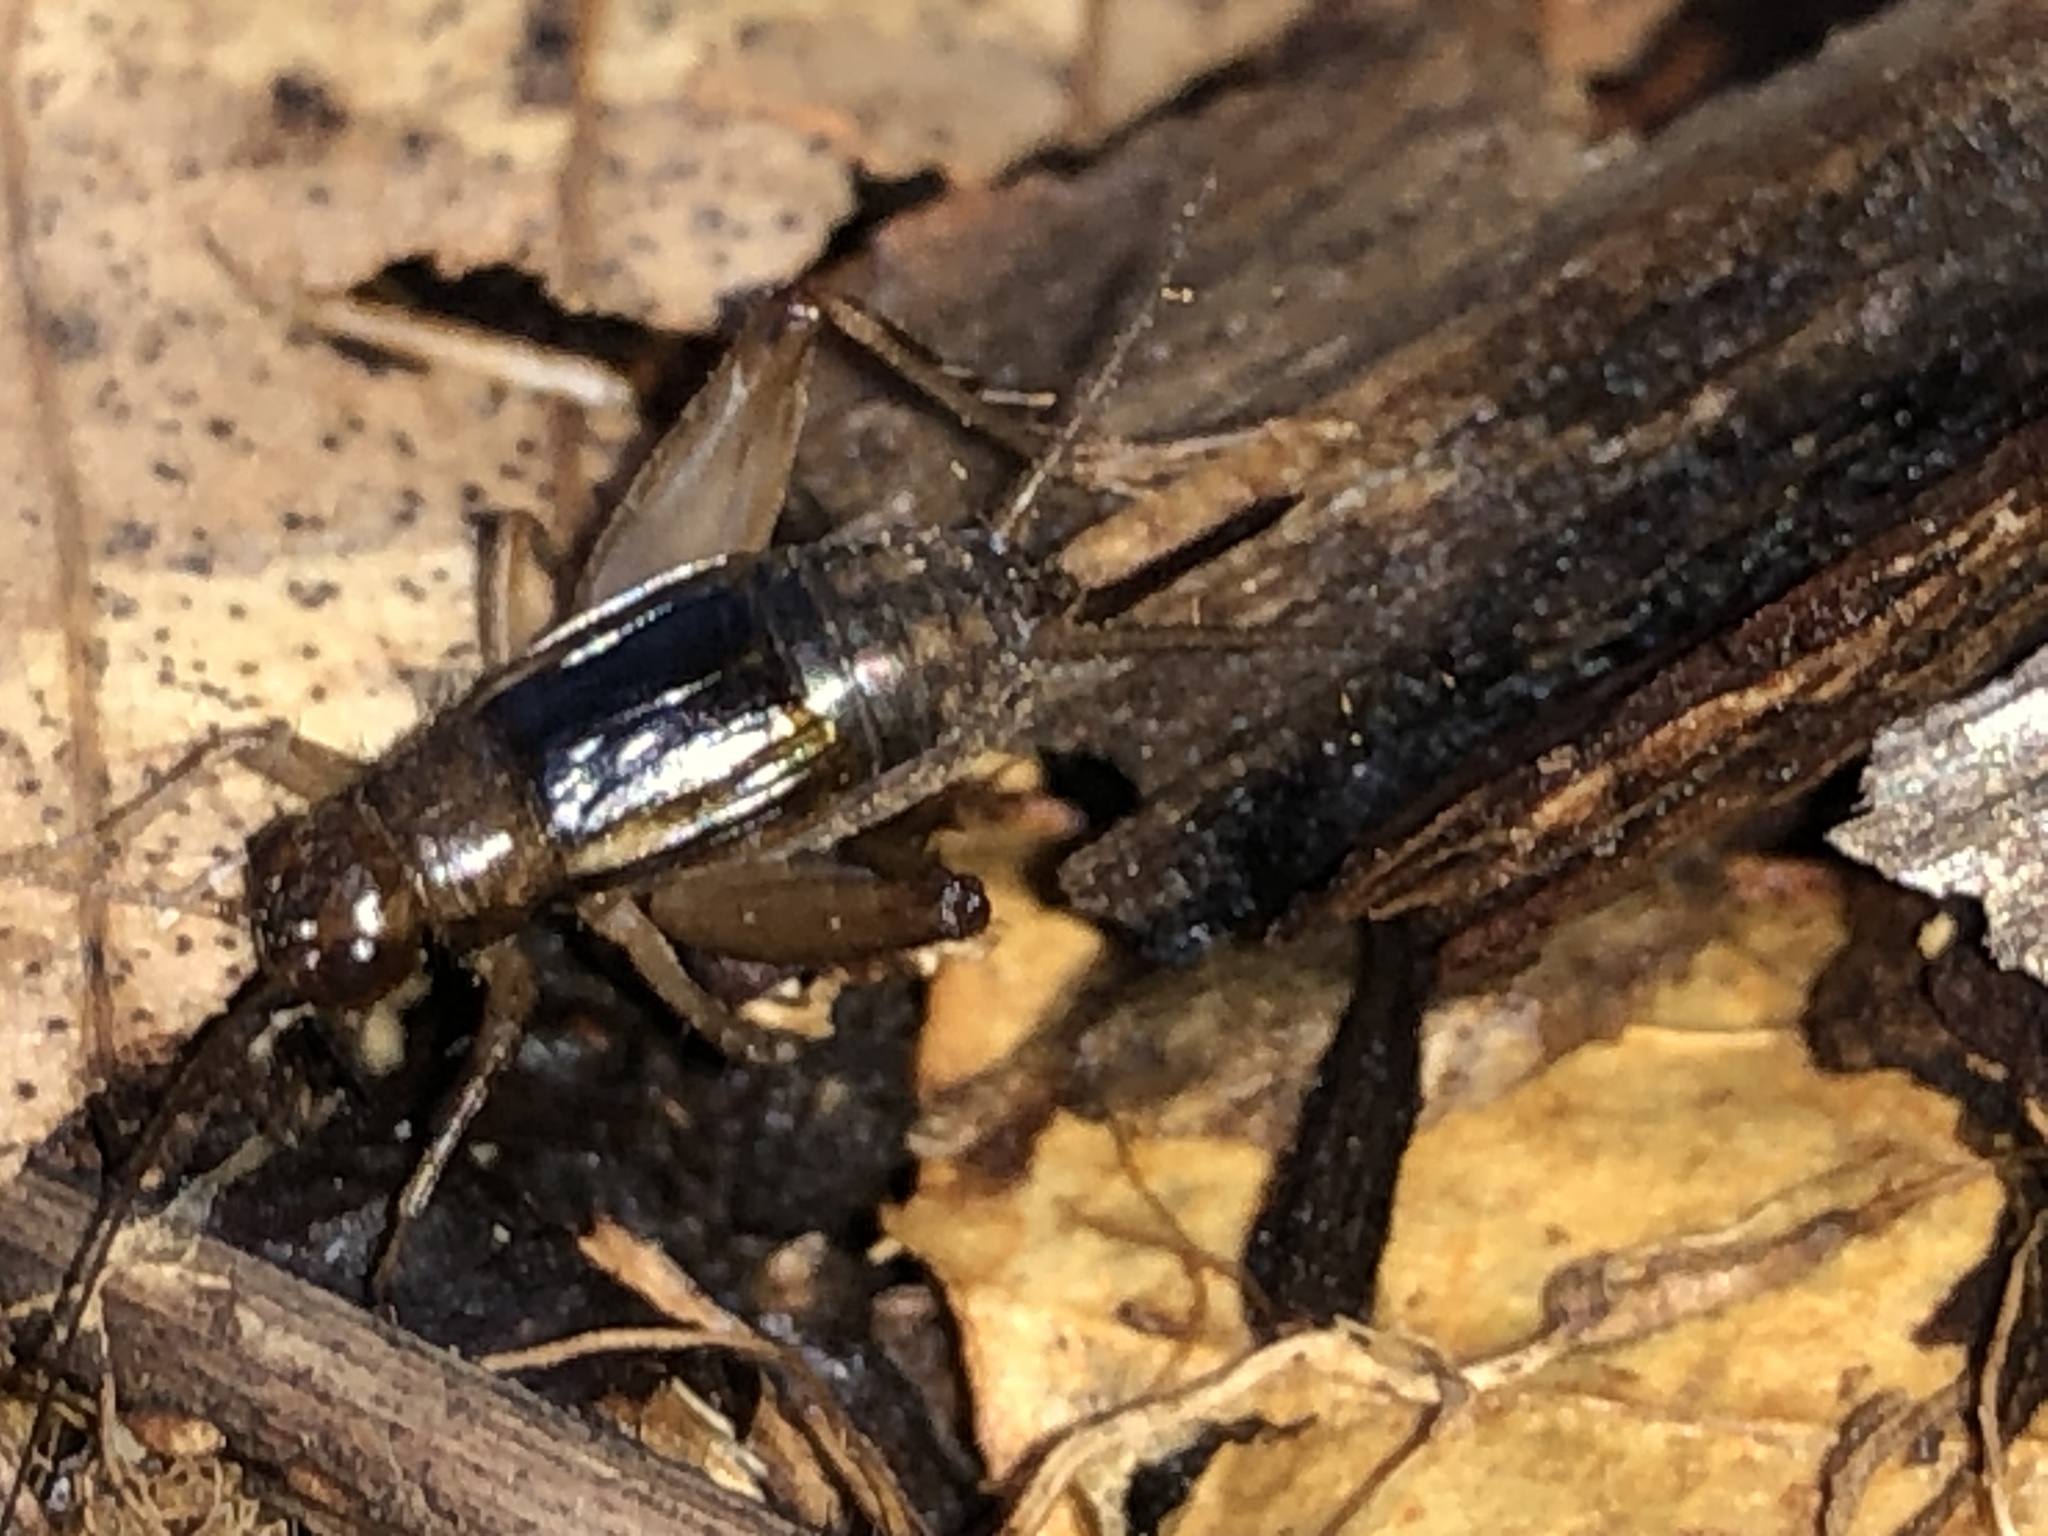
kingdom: Animalia
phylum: Arthropoda
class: Insecta
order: Orthoptera
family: Trigonidiidae
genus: Eunemobius
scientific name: Eunemobius carolinus
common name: Carolina ground cricket
